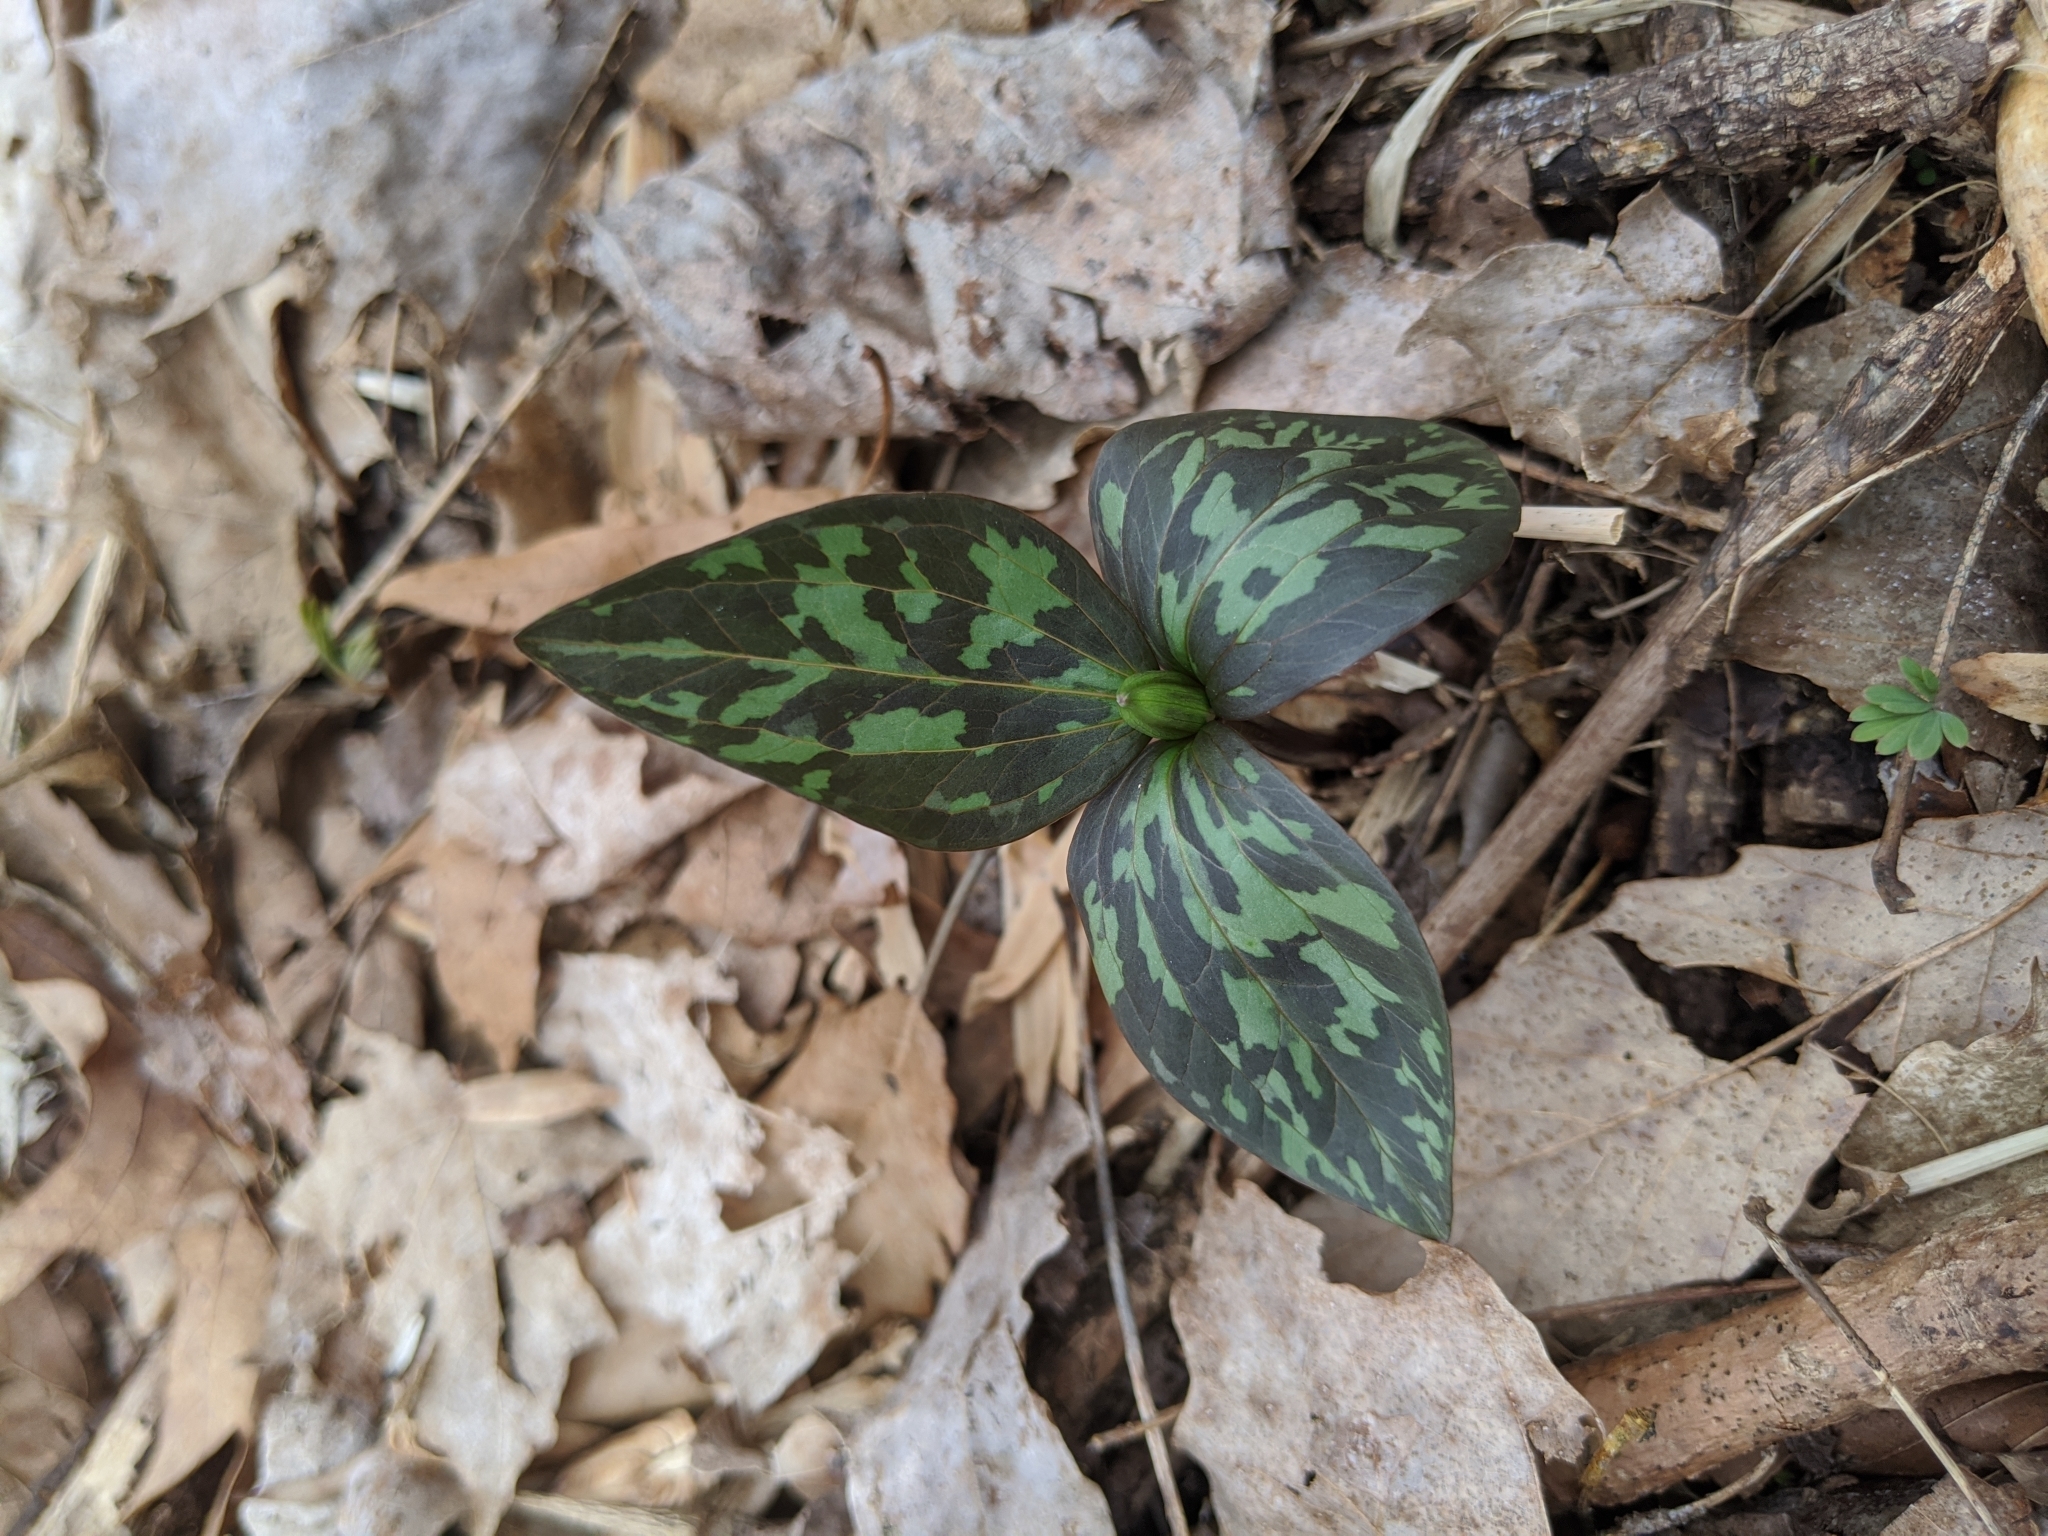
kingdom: Plantae
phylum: Tracheophyta
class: Liliopsida
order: Liliales
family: Melanthiaceae
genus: Trillium
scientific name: Trillium recurvatum
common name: Bloody butcher
